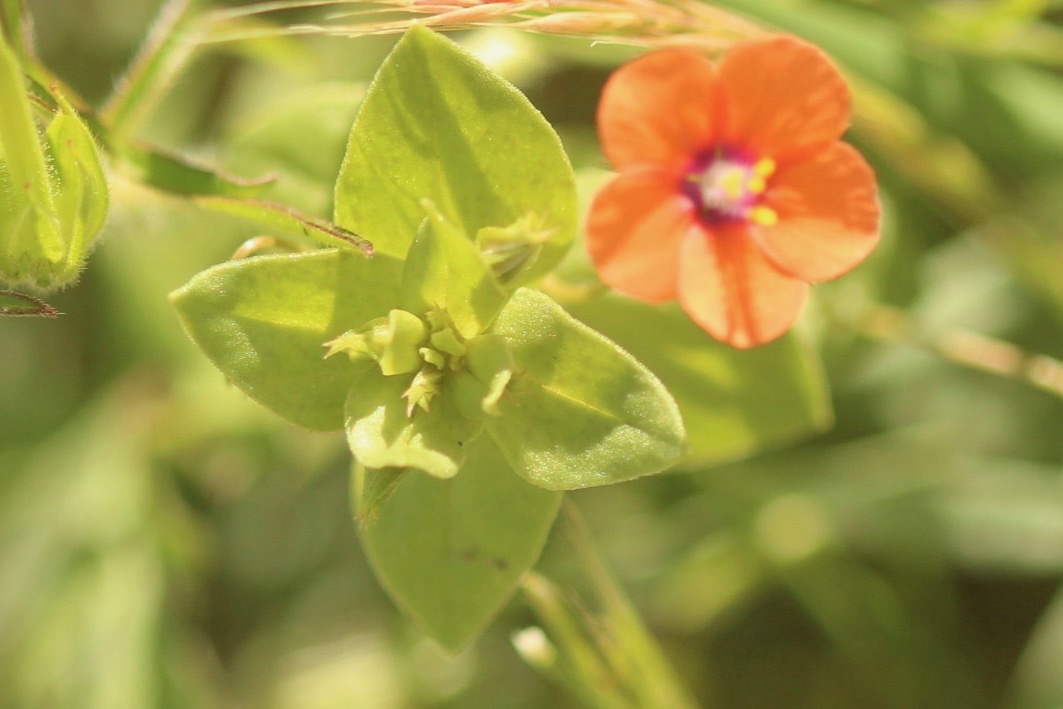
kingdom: Plantae
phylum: Tracheophyta
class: Magnoliopsida
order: Ericales
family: Primulaceae
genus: Lysimachia
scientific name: Lysimachia arvensis
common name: Scarlet pimpernel
